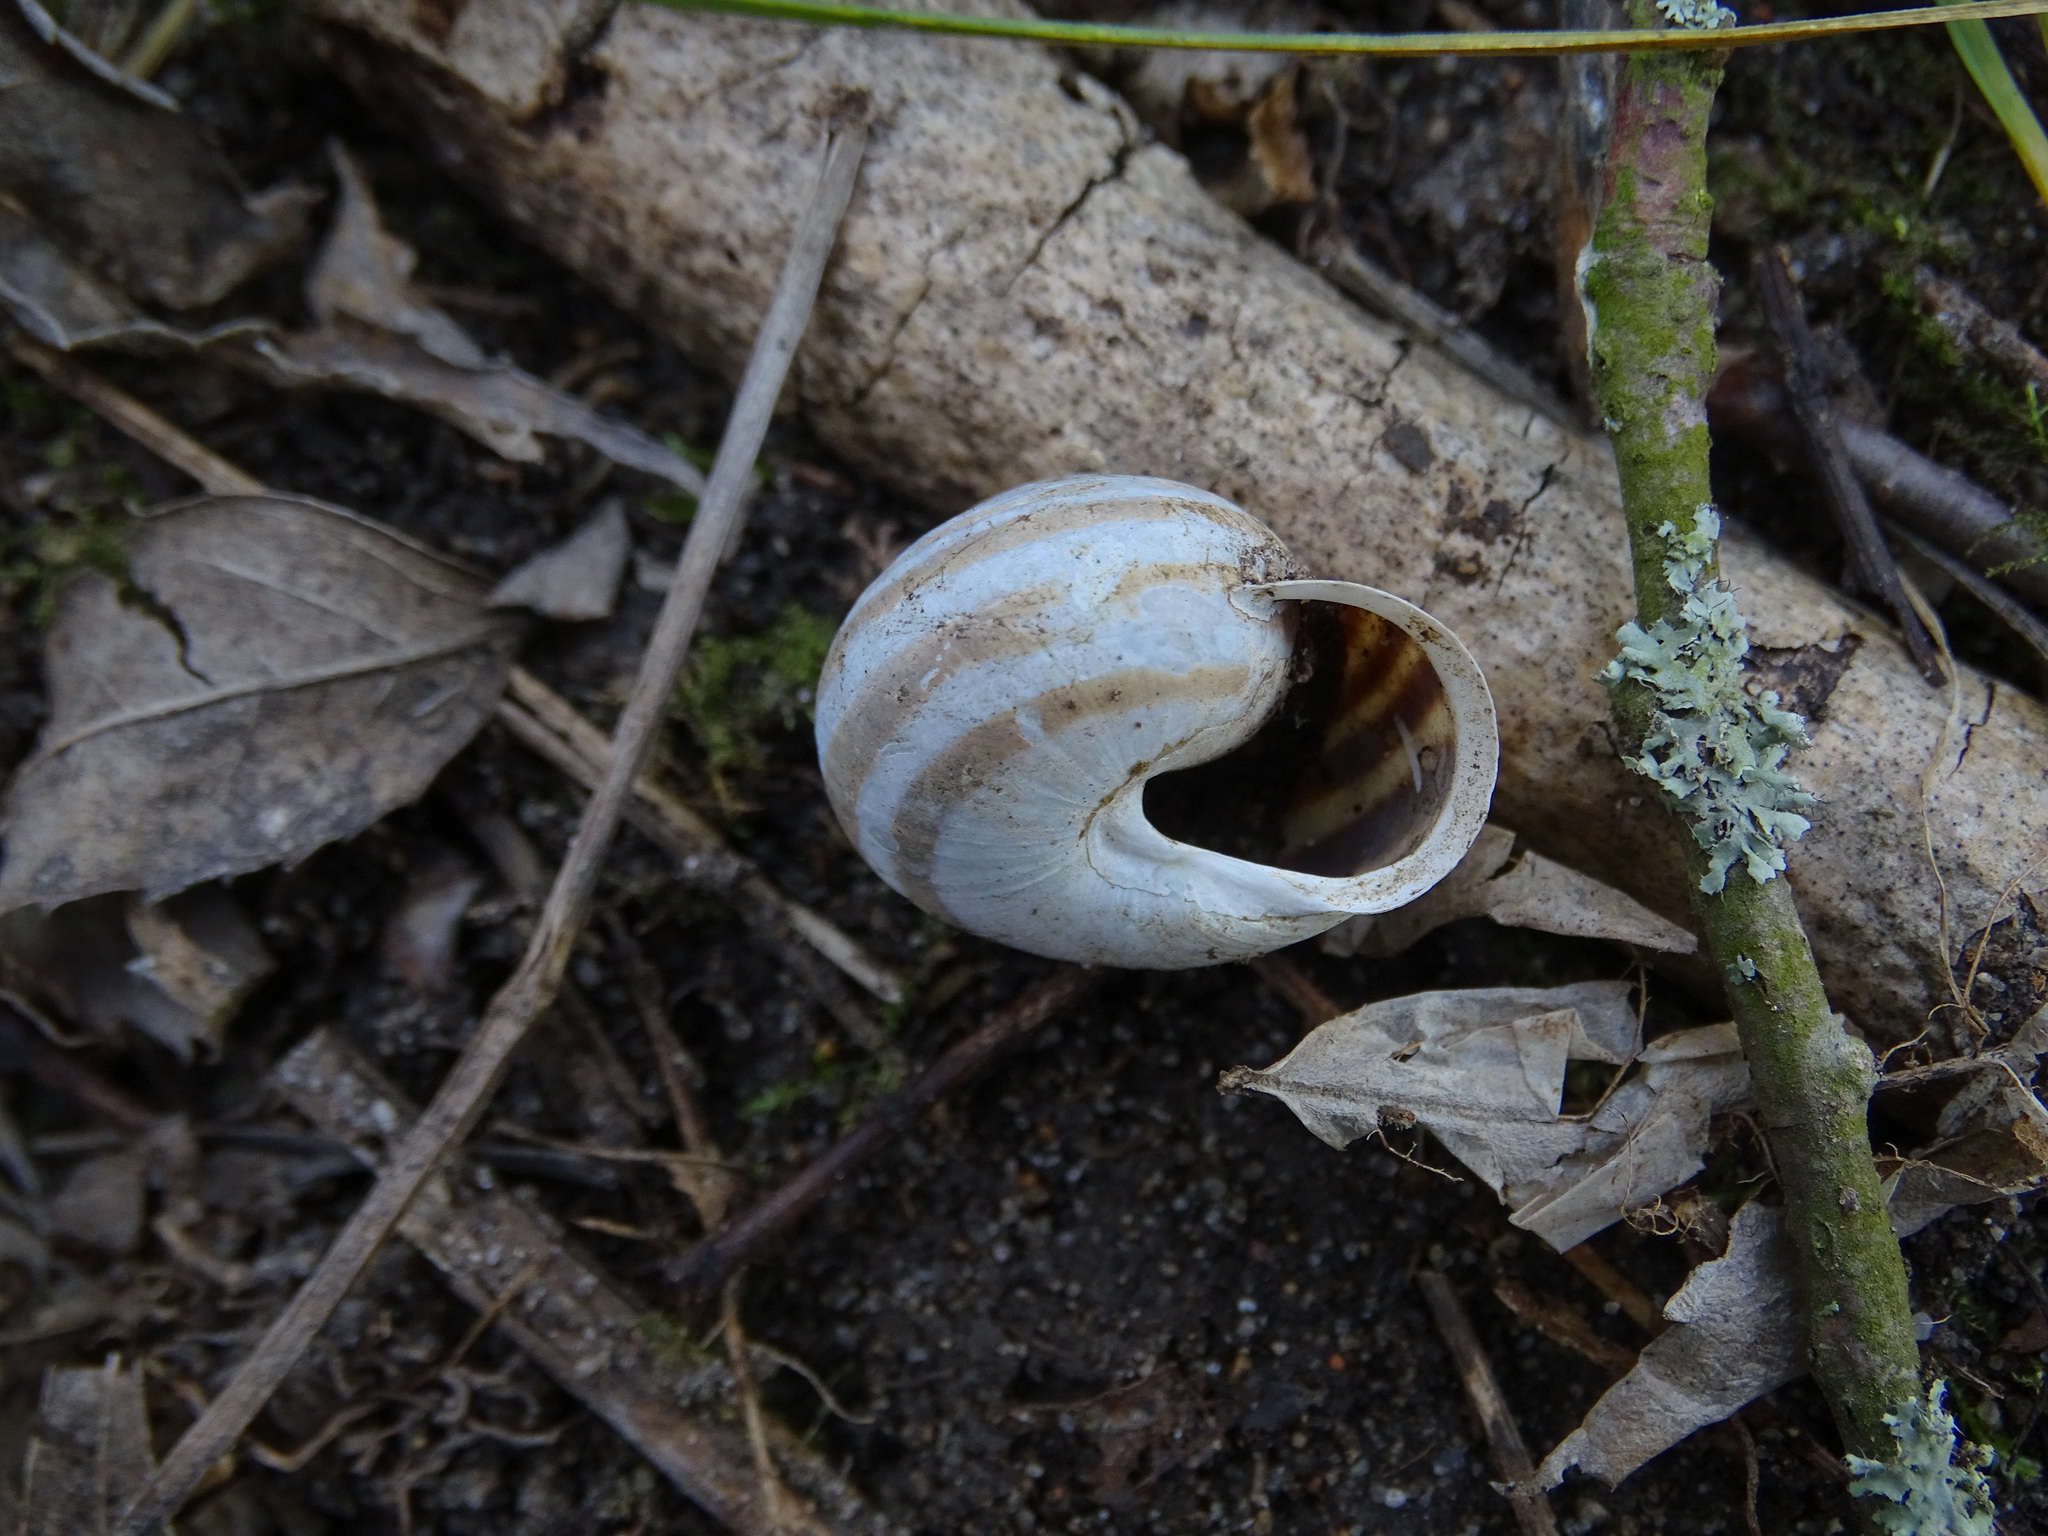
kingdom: Animalia
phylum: Mollusca
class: Gastropoda
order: Stylommatophora
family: Helicidae
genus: Cepaea
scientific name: Cepaea hortensis
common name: White-lip gardensnail
